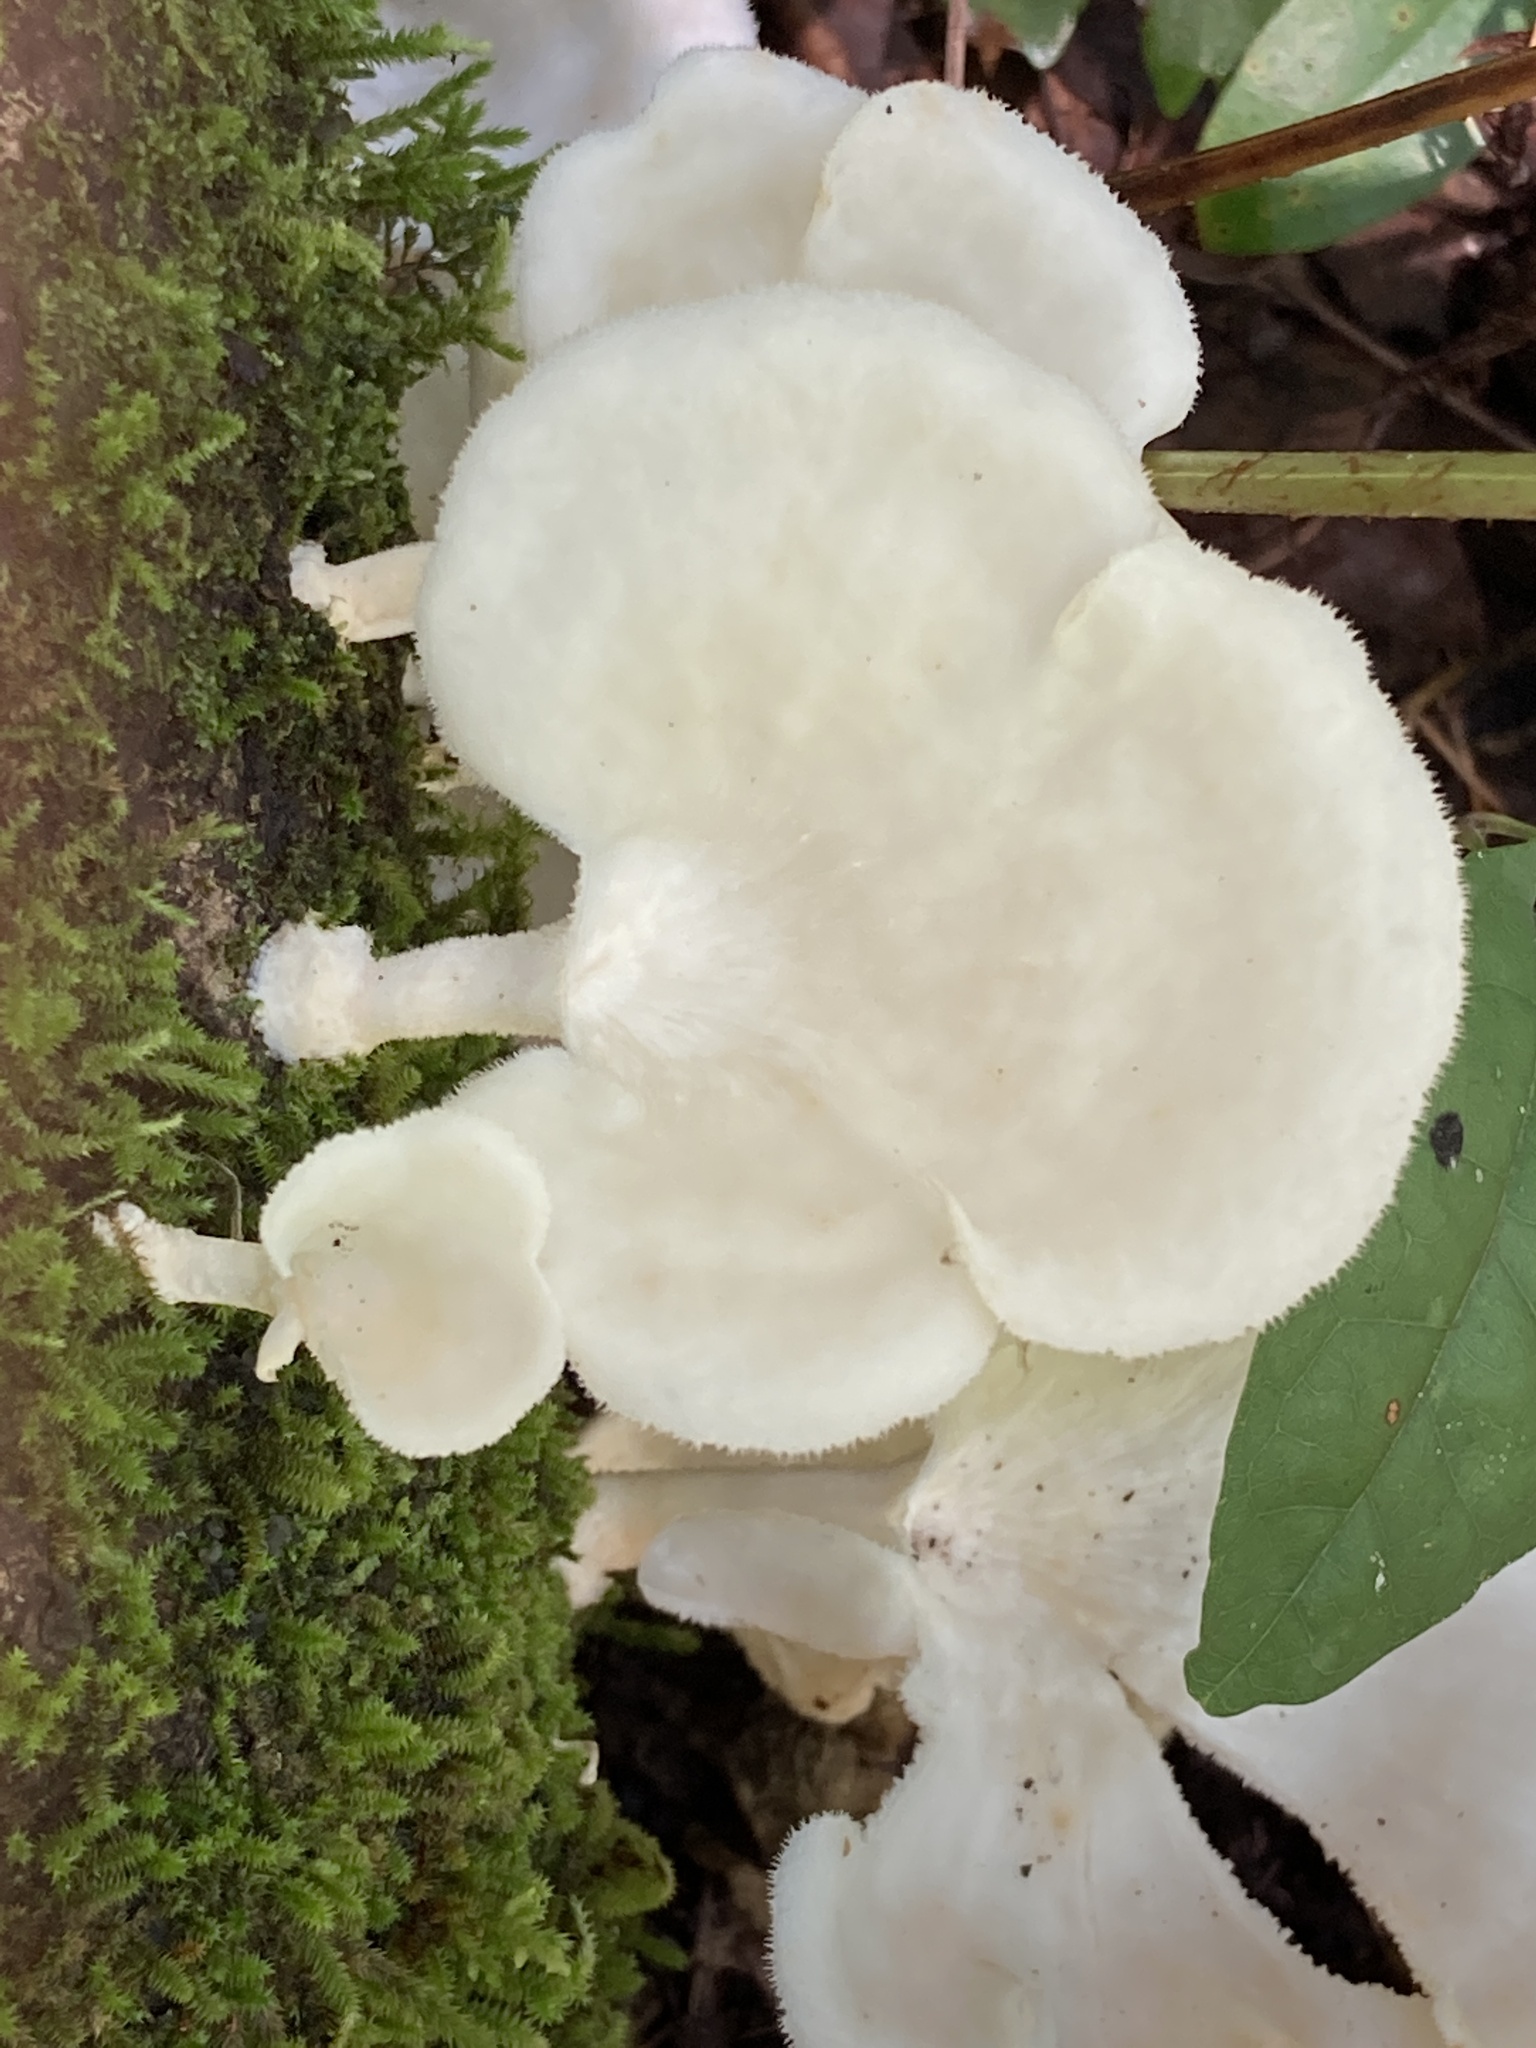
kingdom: Fungi
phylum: Basidiomycota
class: Agaricomycetes
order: Polyporales
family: Polyporaceae
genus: Favolus
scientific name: Favolus tenuiculus
